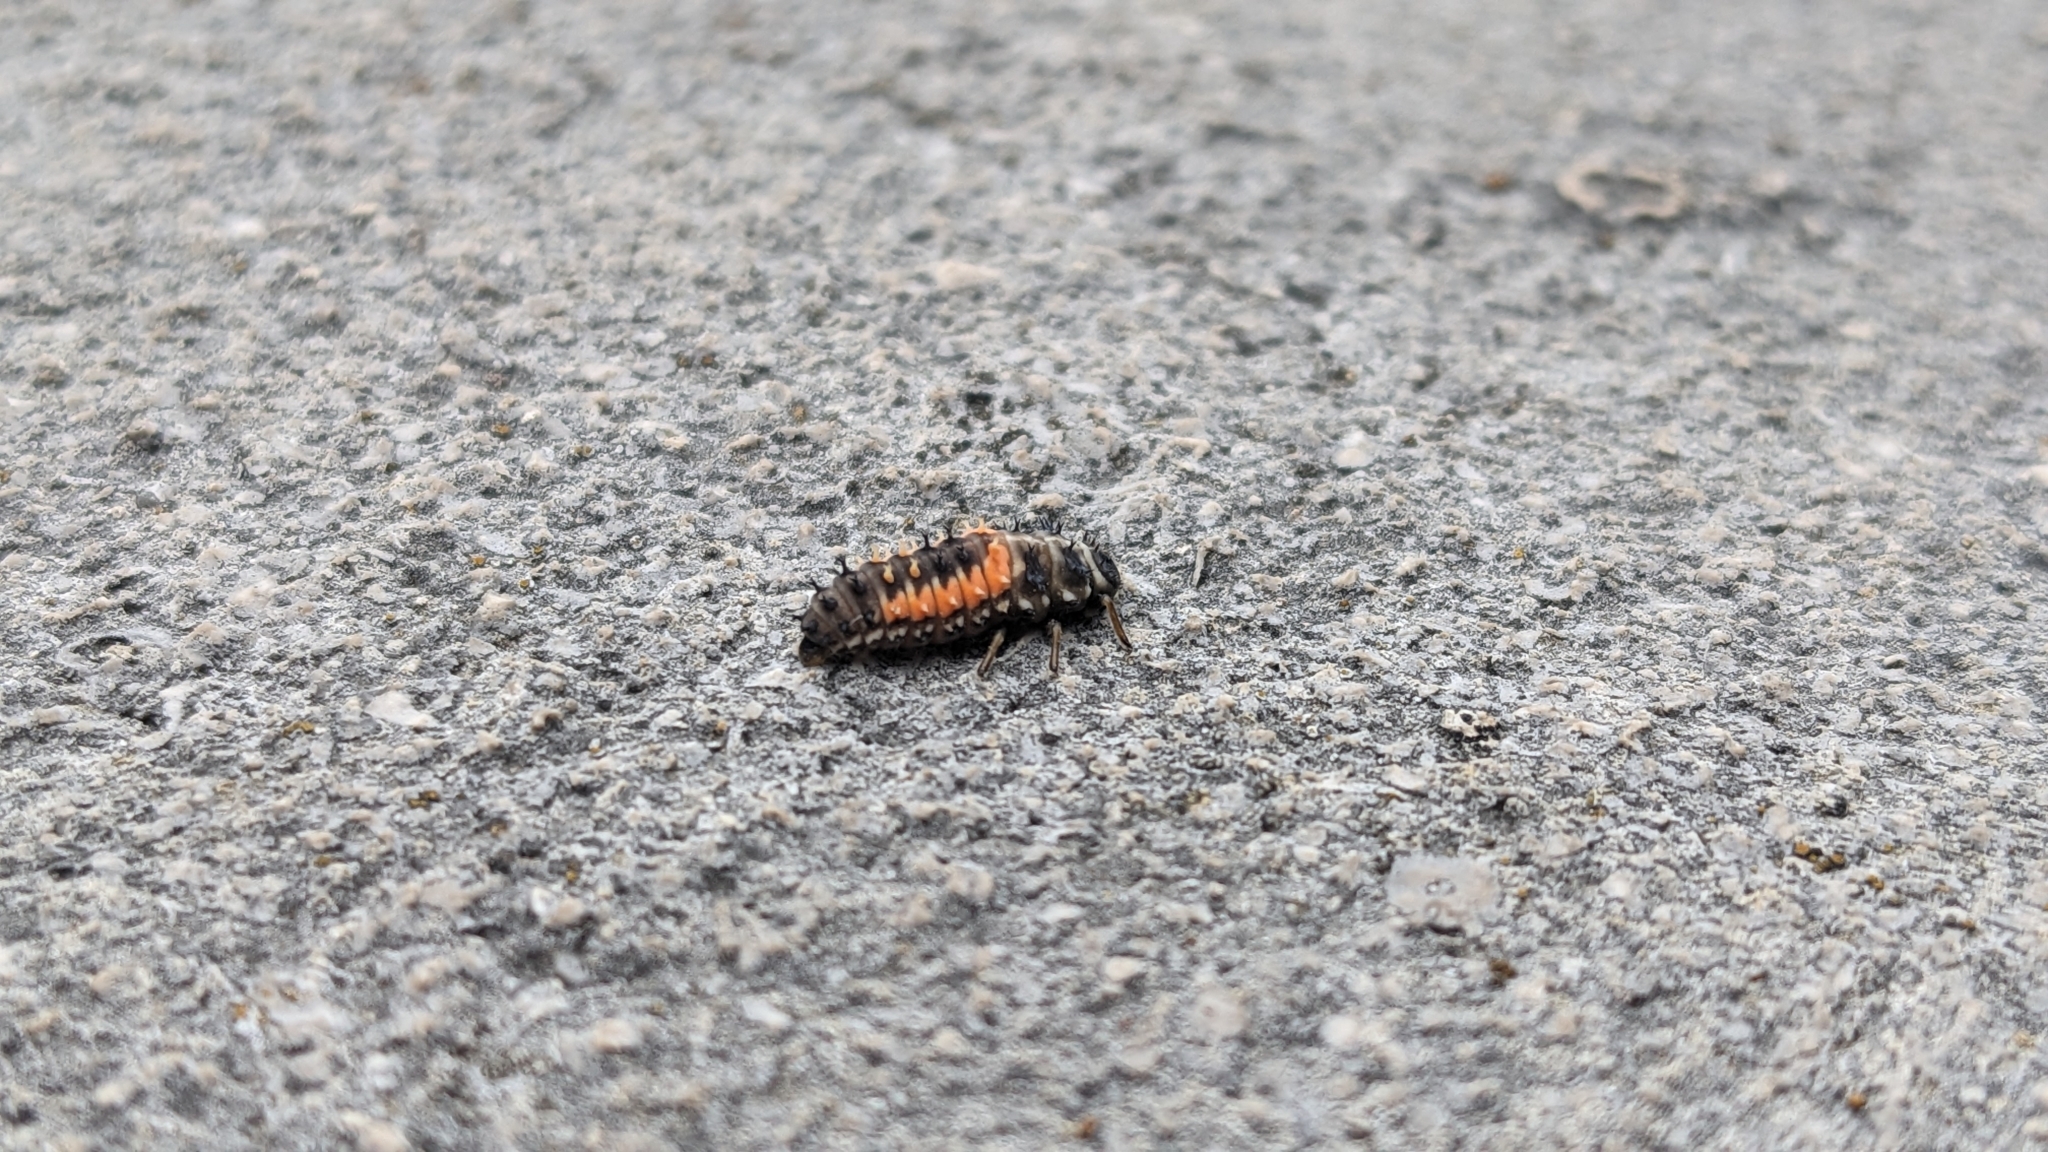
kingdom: Animalia
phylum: Arthropoda
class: Insecta
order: Coleoptera
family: Coccinellidae
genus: Harmonia
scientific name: Harmonia axyridis
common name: Harlequin ladybird
